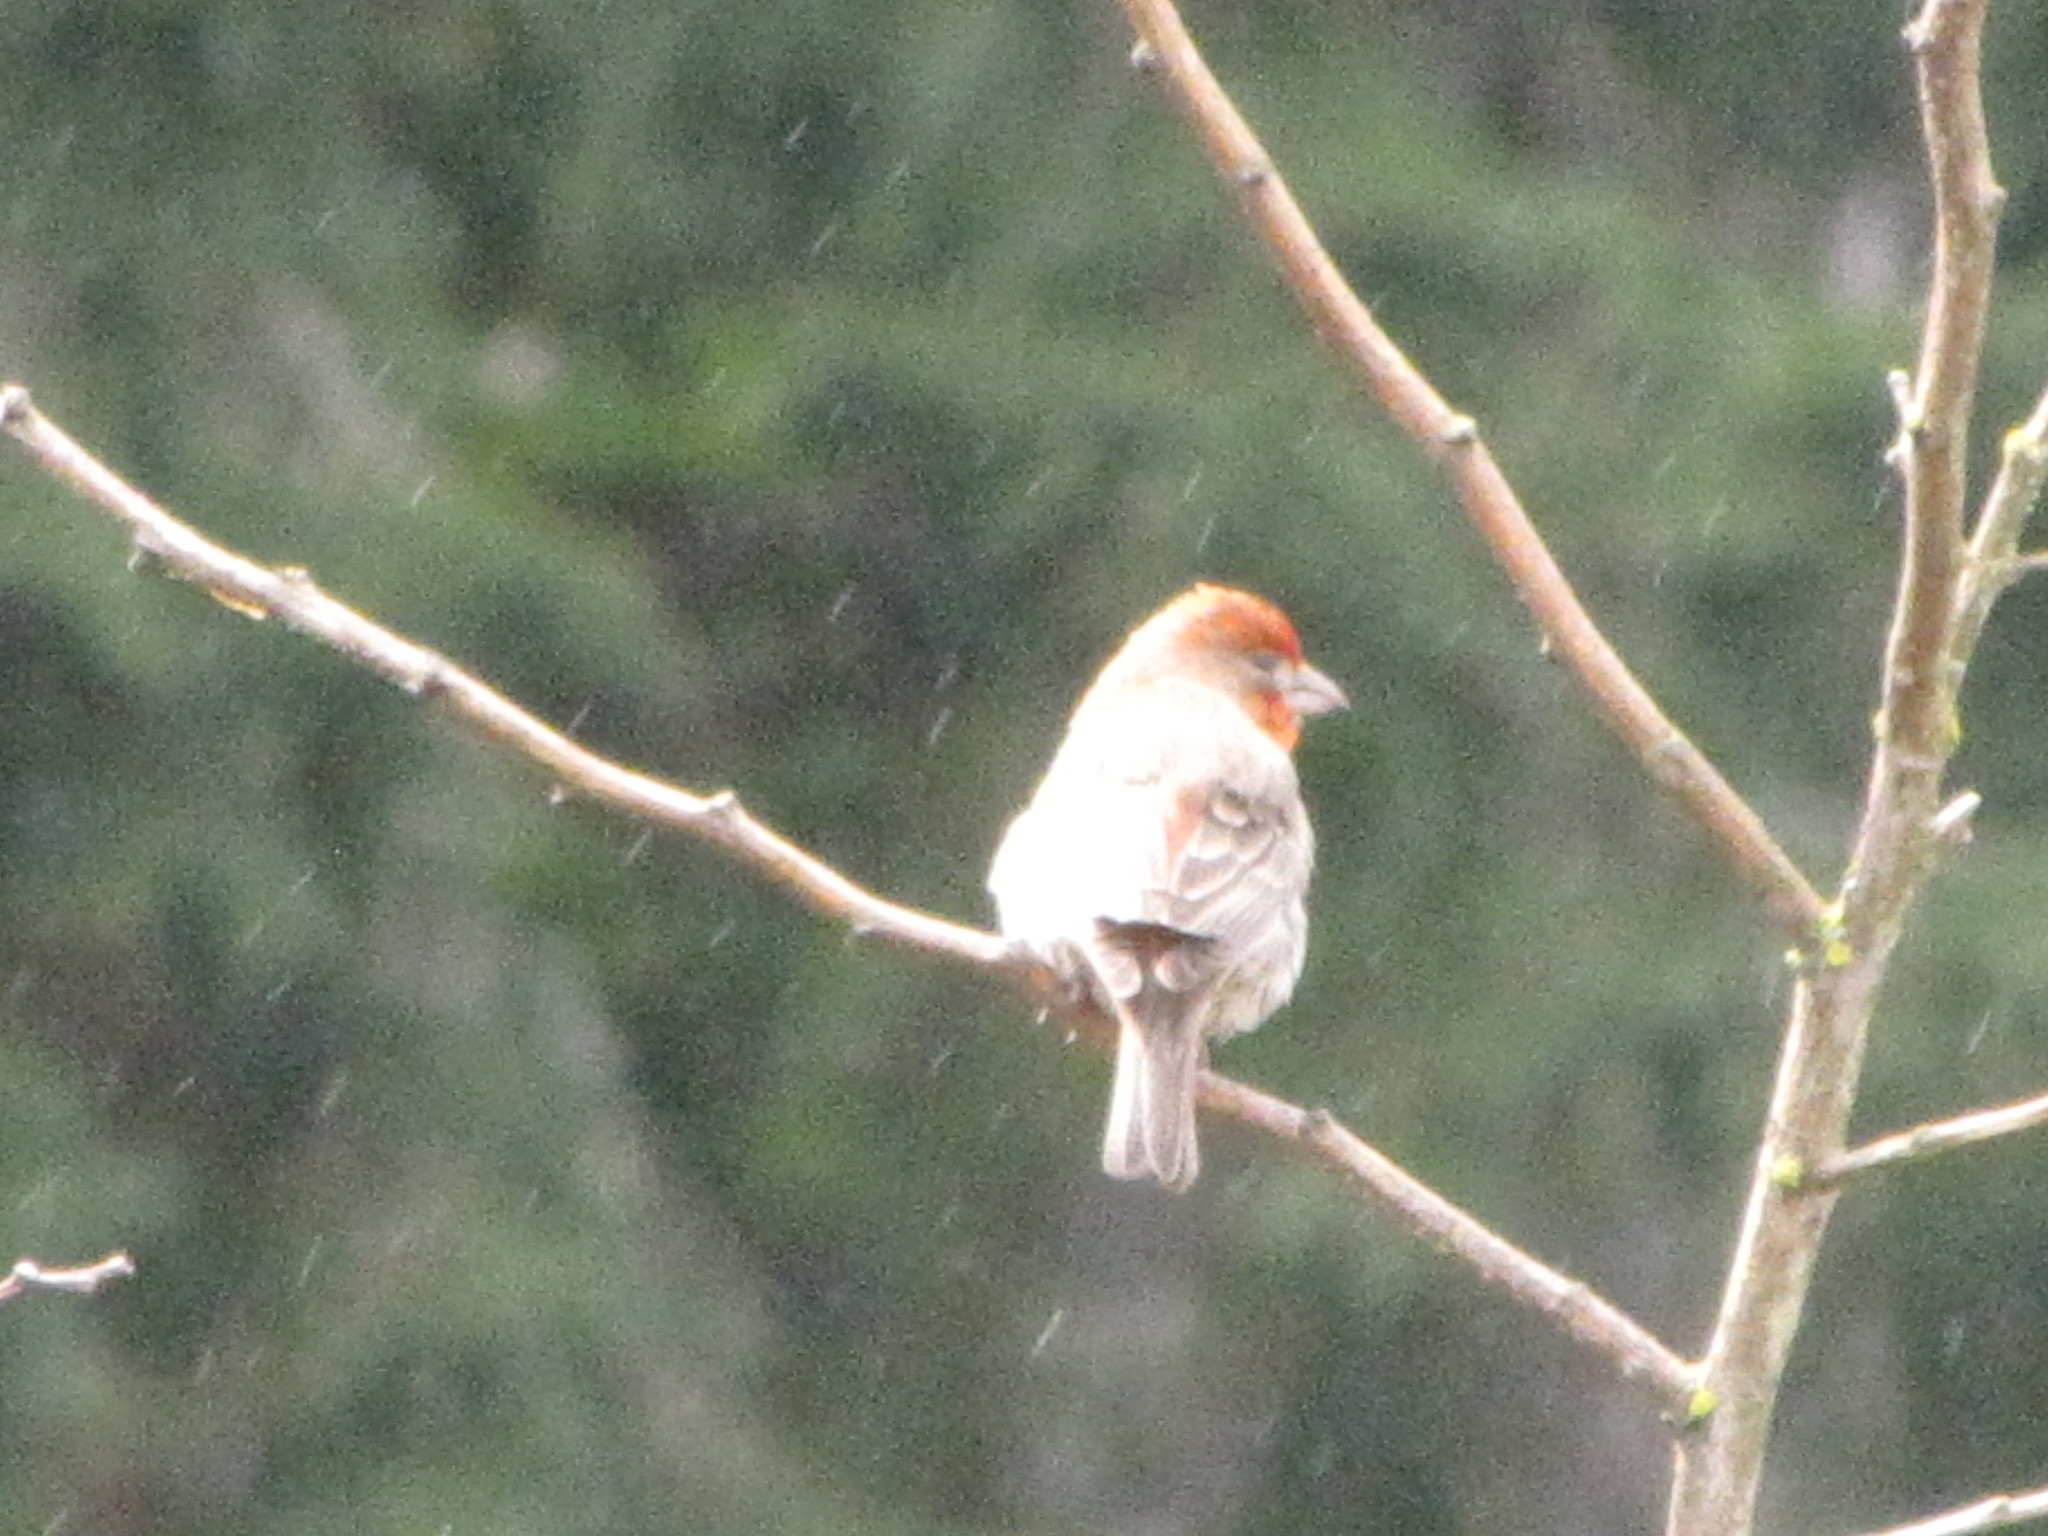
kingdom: Animalia
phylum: Chordata
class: Aves
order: Passeriformes
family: Fringillidae
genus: Haemorhous
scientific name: Haemorhous mexicanus
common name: House finch
